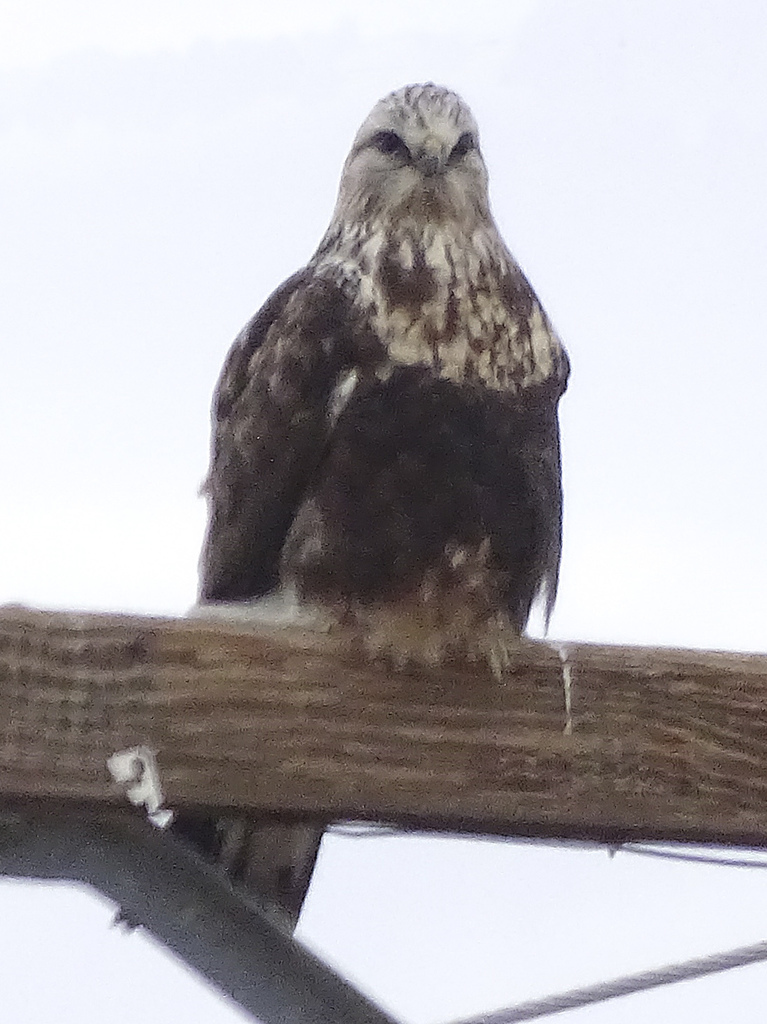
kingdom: Animalia
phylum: Chordata
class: Aves
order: Accipitriformes
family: Accipitridae
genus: Buteo
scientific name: Buteo lagopus
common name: Rough-legged buzzard
